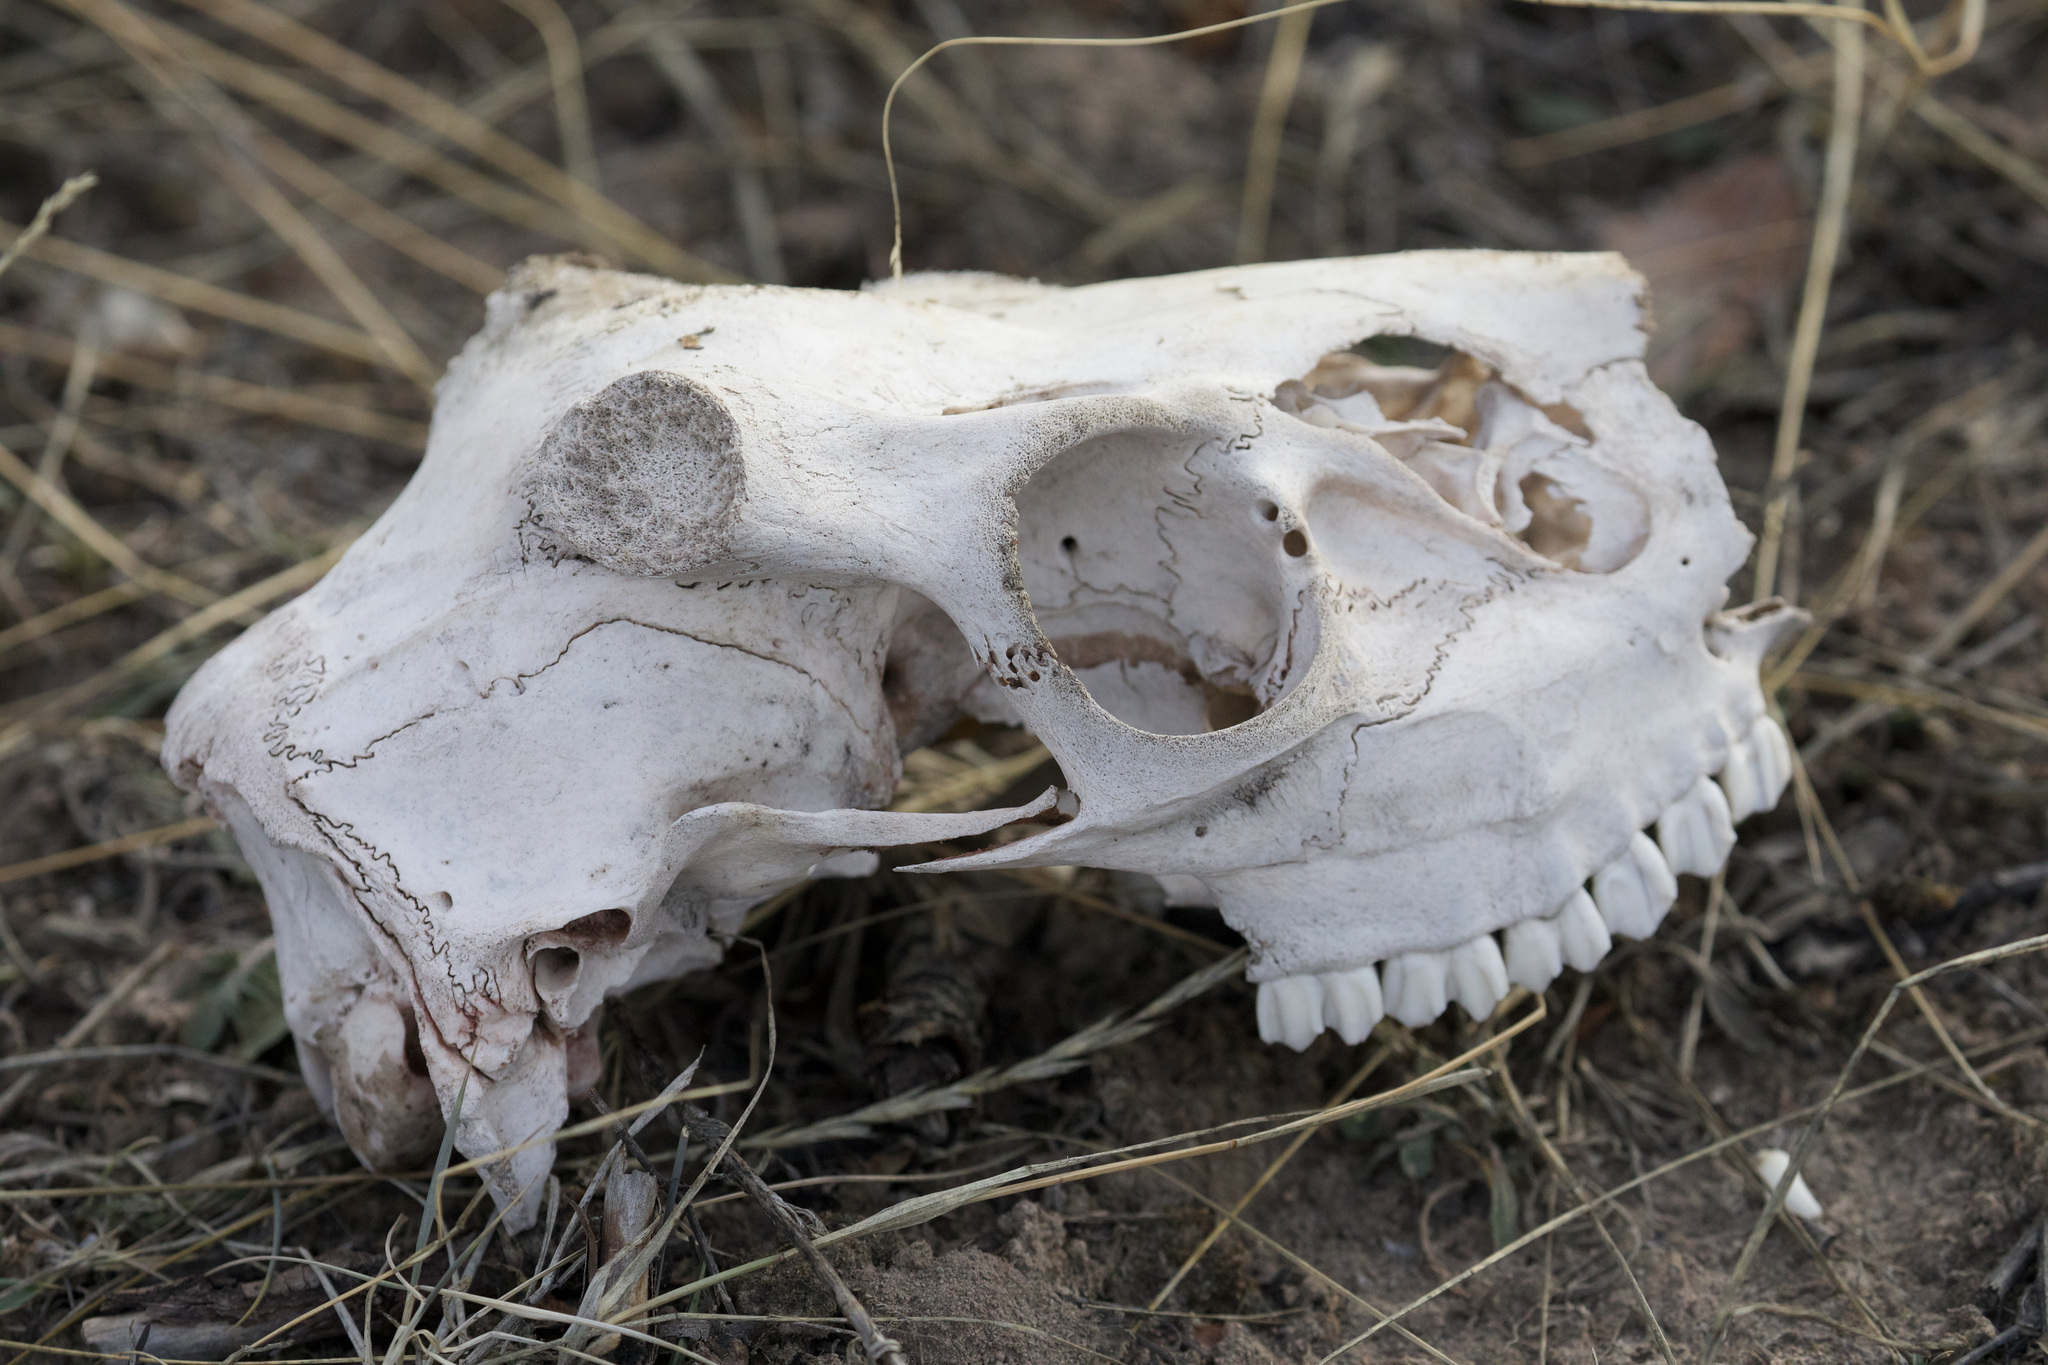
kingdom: Animalia
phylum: Chordata
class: Mammalia
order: Artiodactyla
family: Cervidae
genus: Odocoileus
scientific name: Odocoileus virginianus
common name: White-tailed deer
